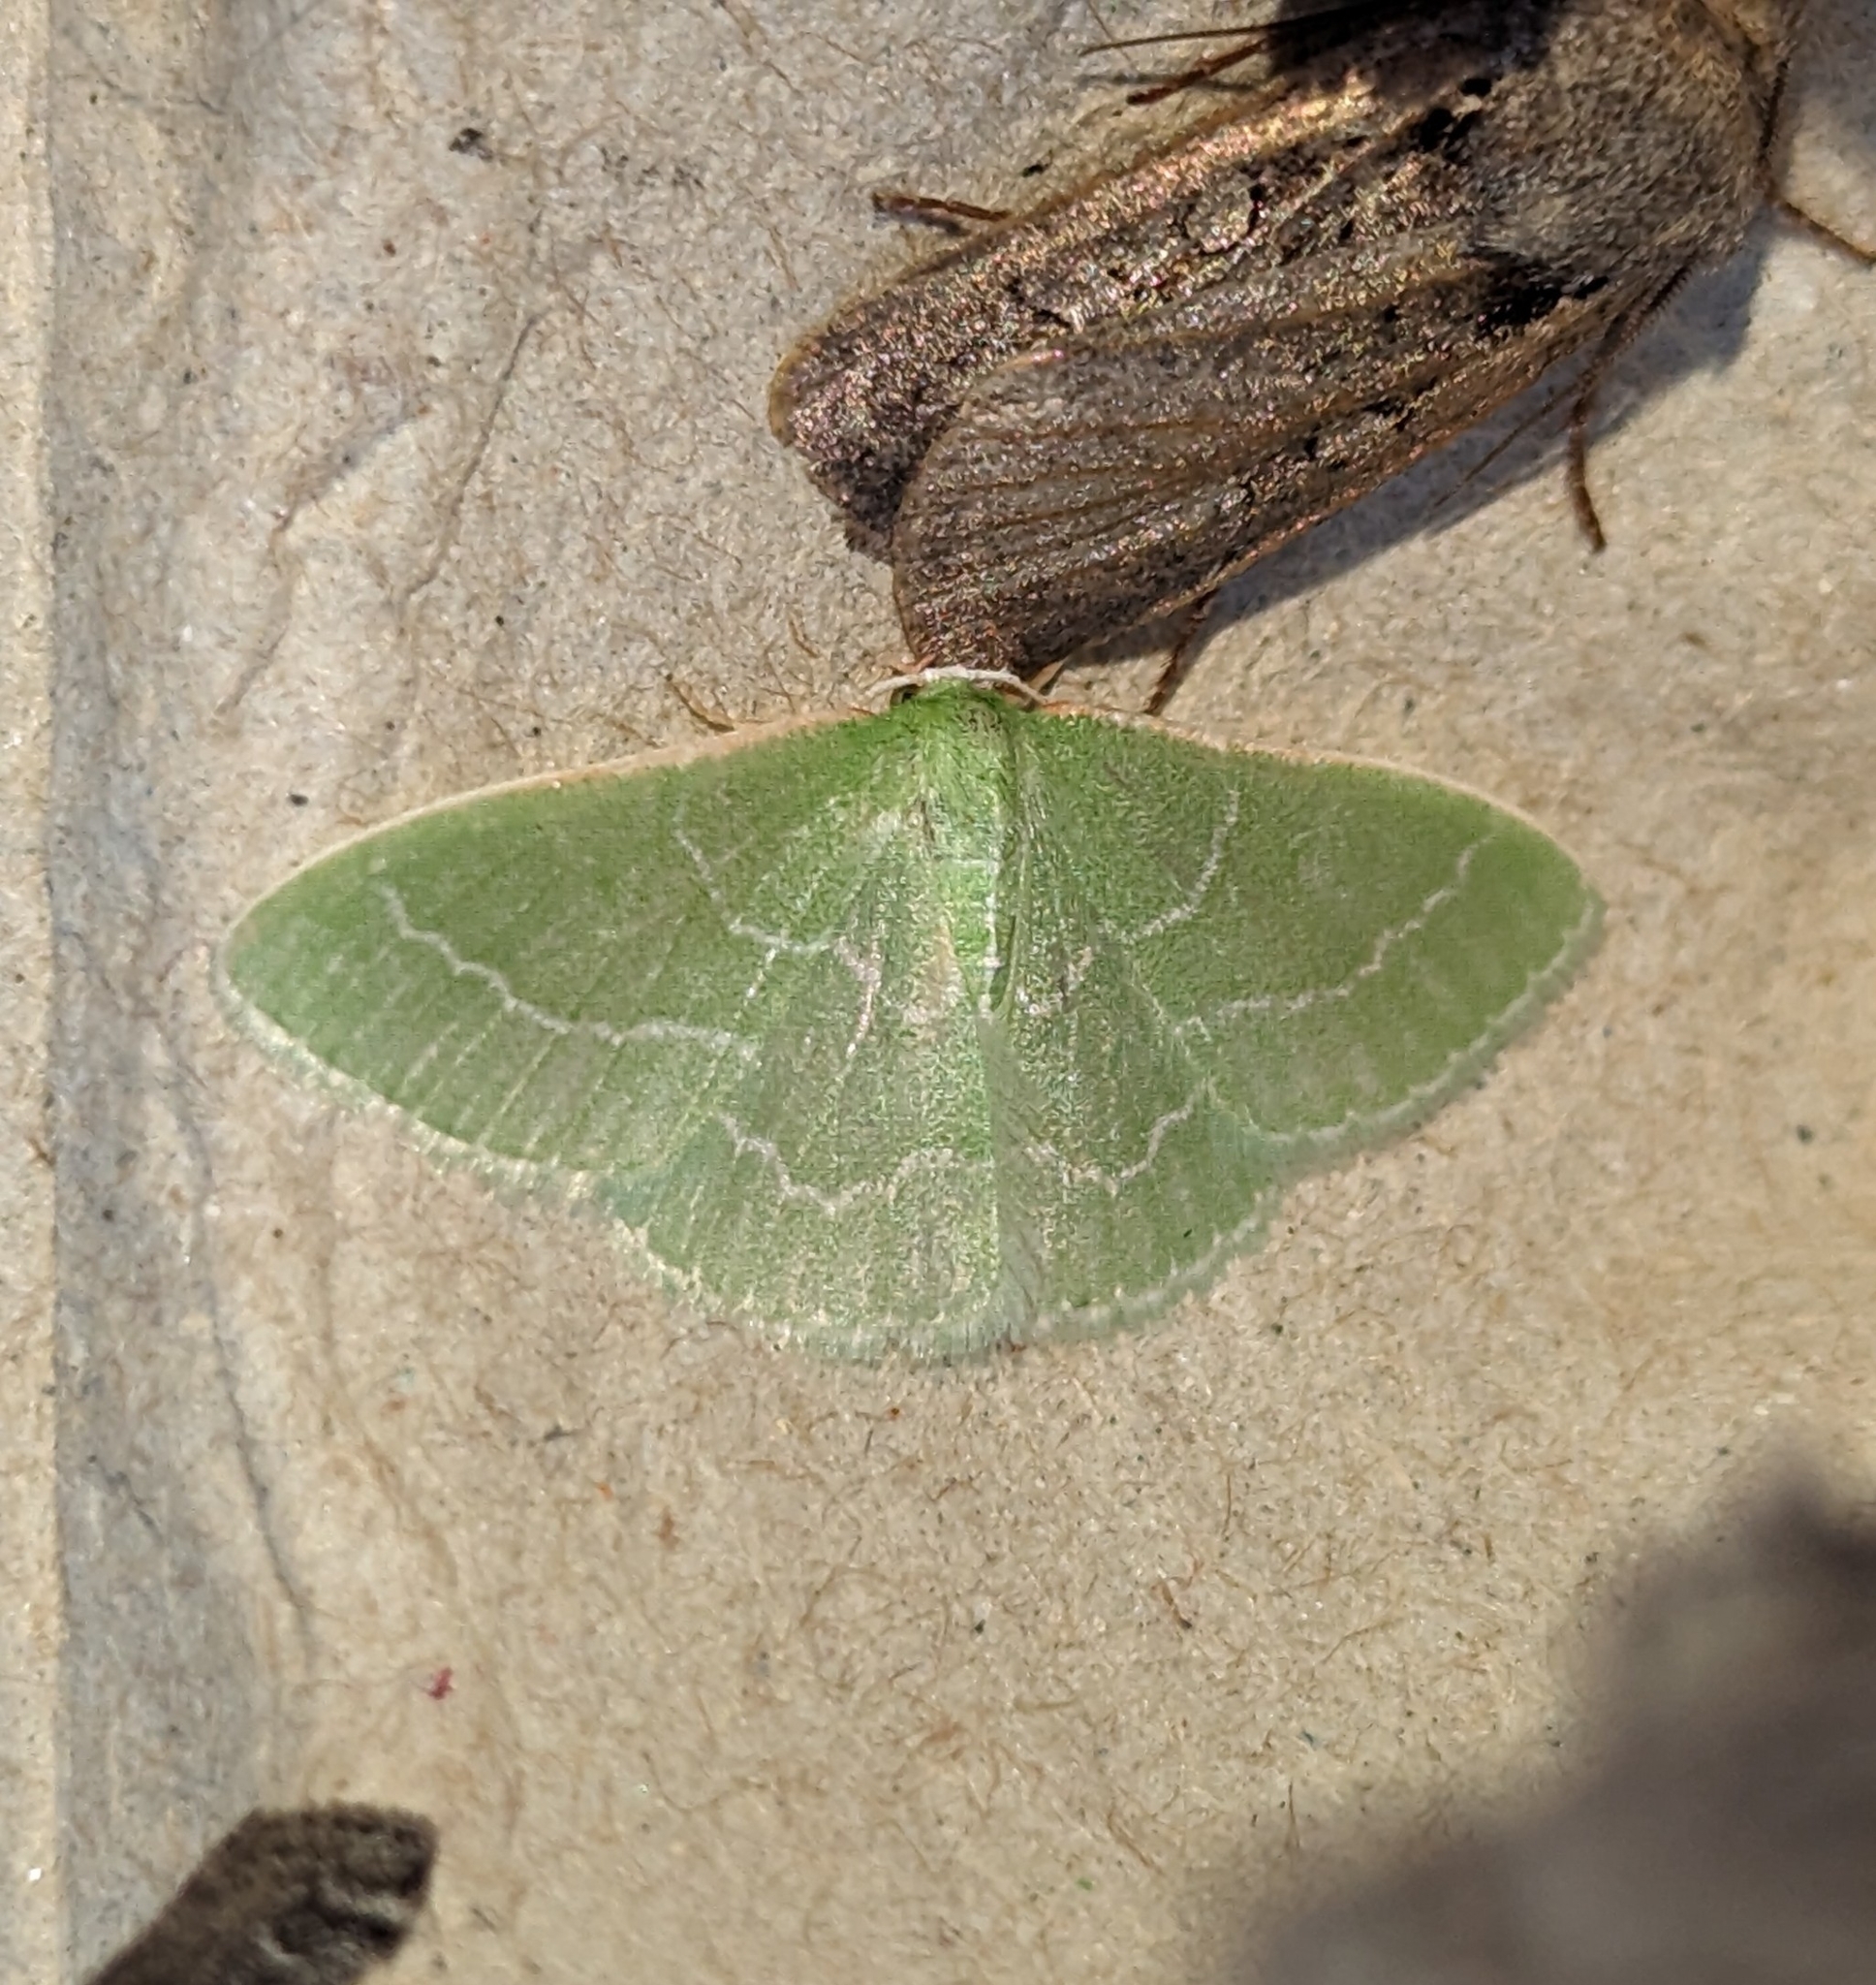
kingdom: Animalia
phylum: Arthropoda
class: Insecta
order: Lepidoptera
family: Geometridae
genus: Synchlora
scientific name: Synchlora aerata
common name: Wavy-lined emerald
